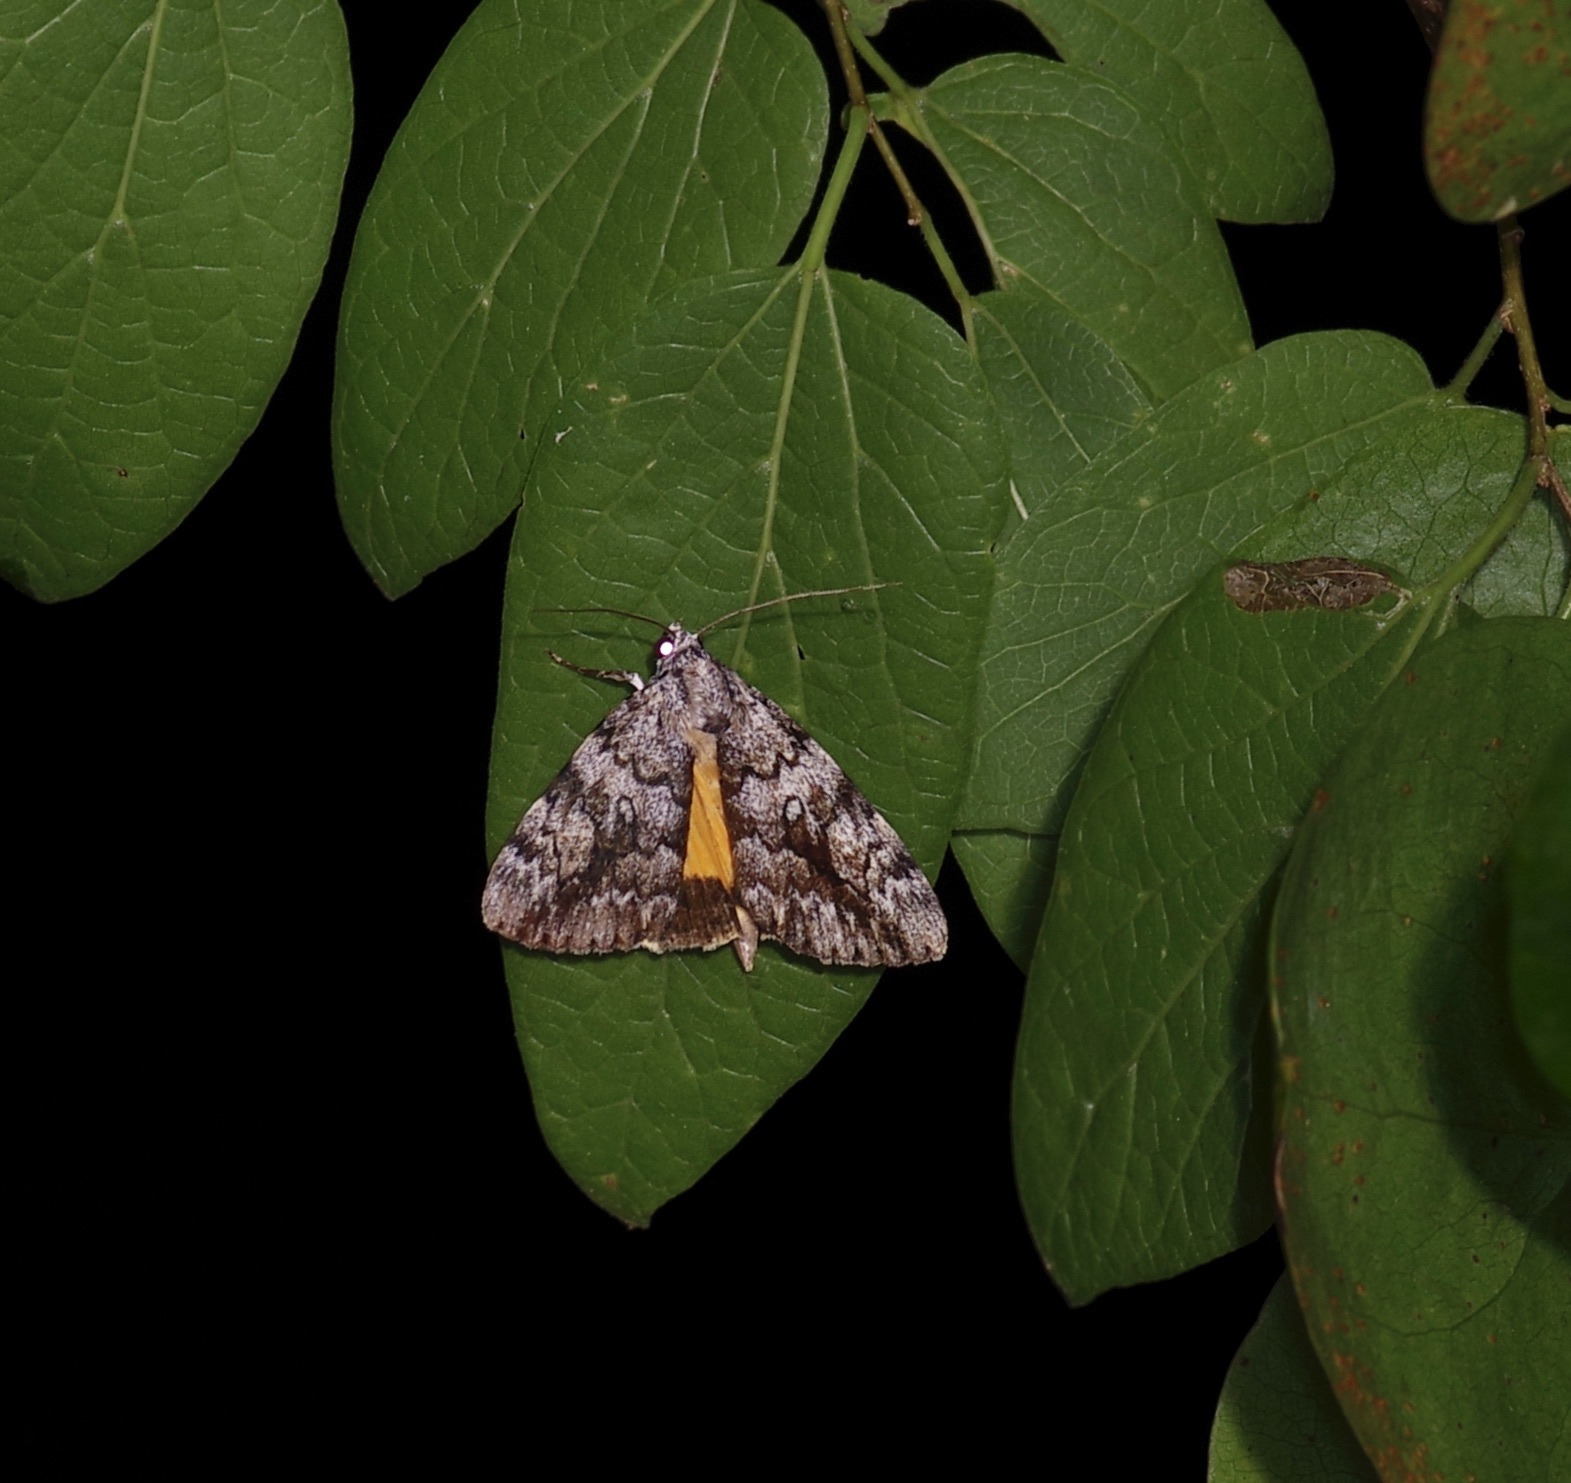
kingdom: Animalia
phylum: Arthropoda
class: Insecta
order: Lepidoptera
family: Erebidae
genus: Catocala
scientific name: Catocala lineella
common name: Little lined underwing
